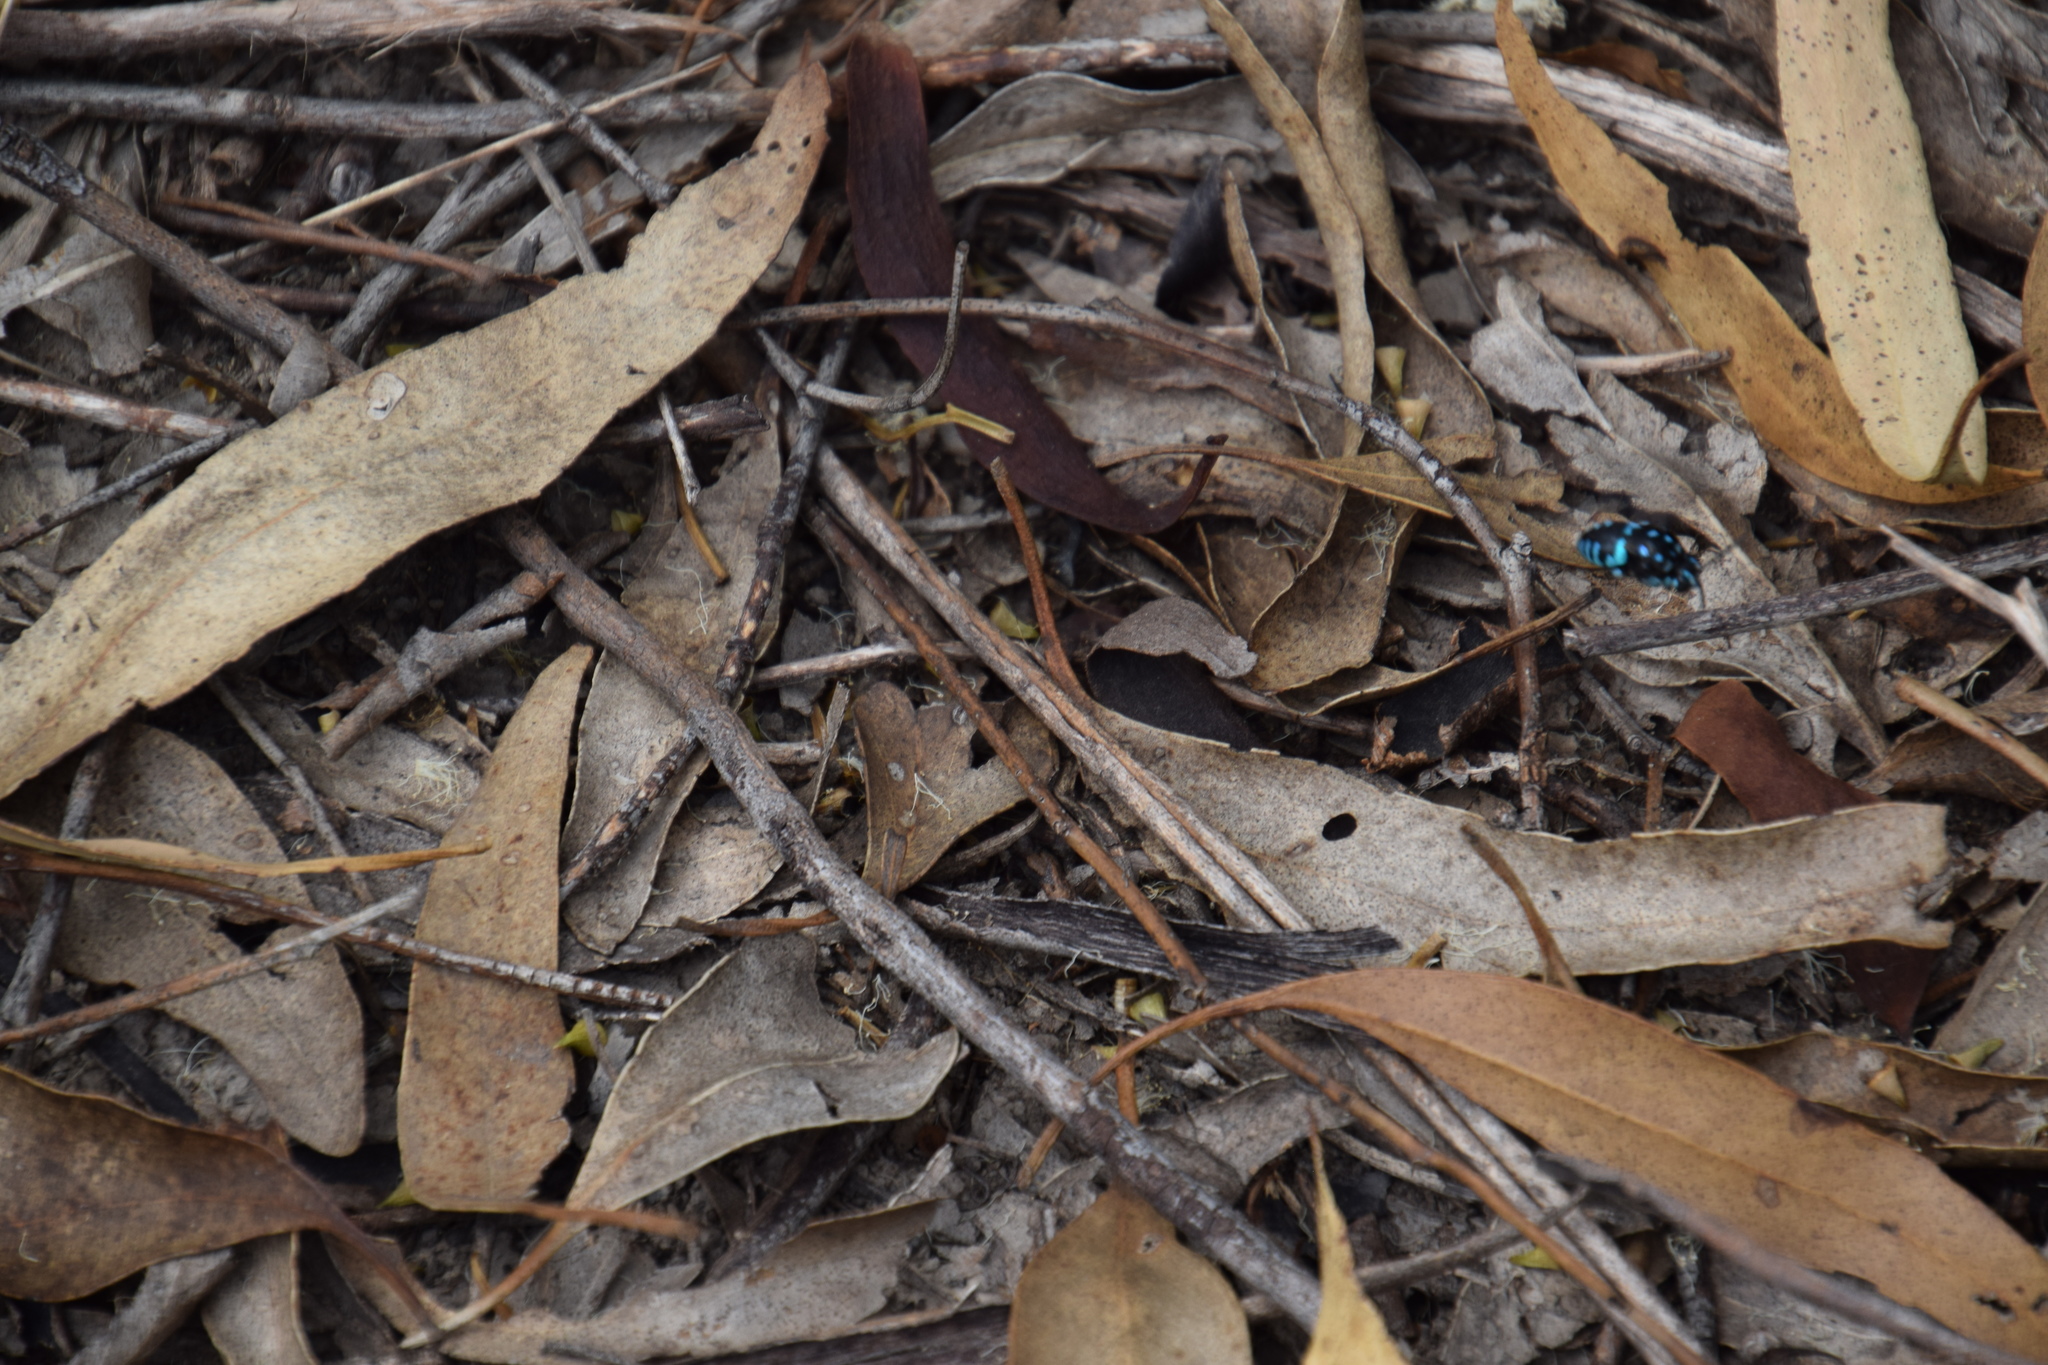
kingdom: Animalia
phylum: Arthropoda
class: Insecta
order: Hymenoptera
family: Apidae
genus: Thyreus
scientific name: Thyreus nitidulus
